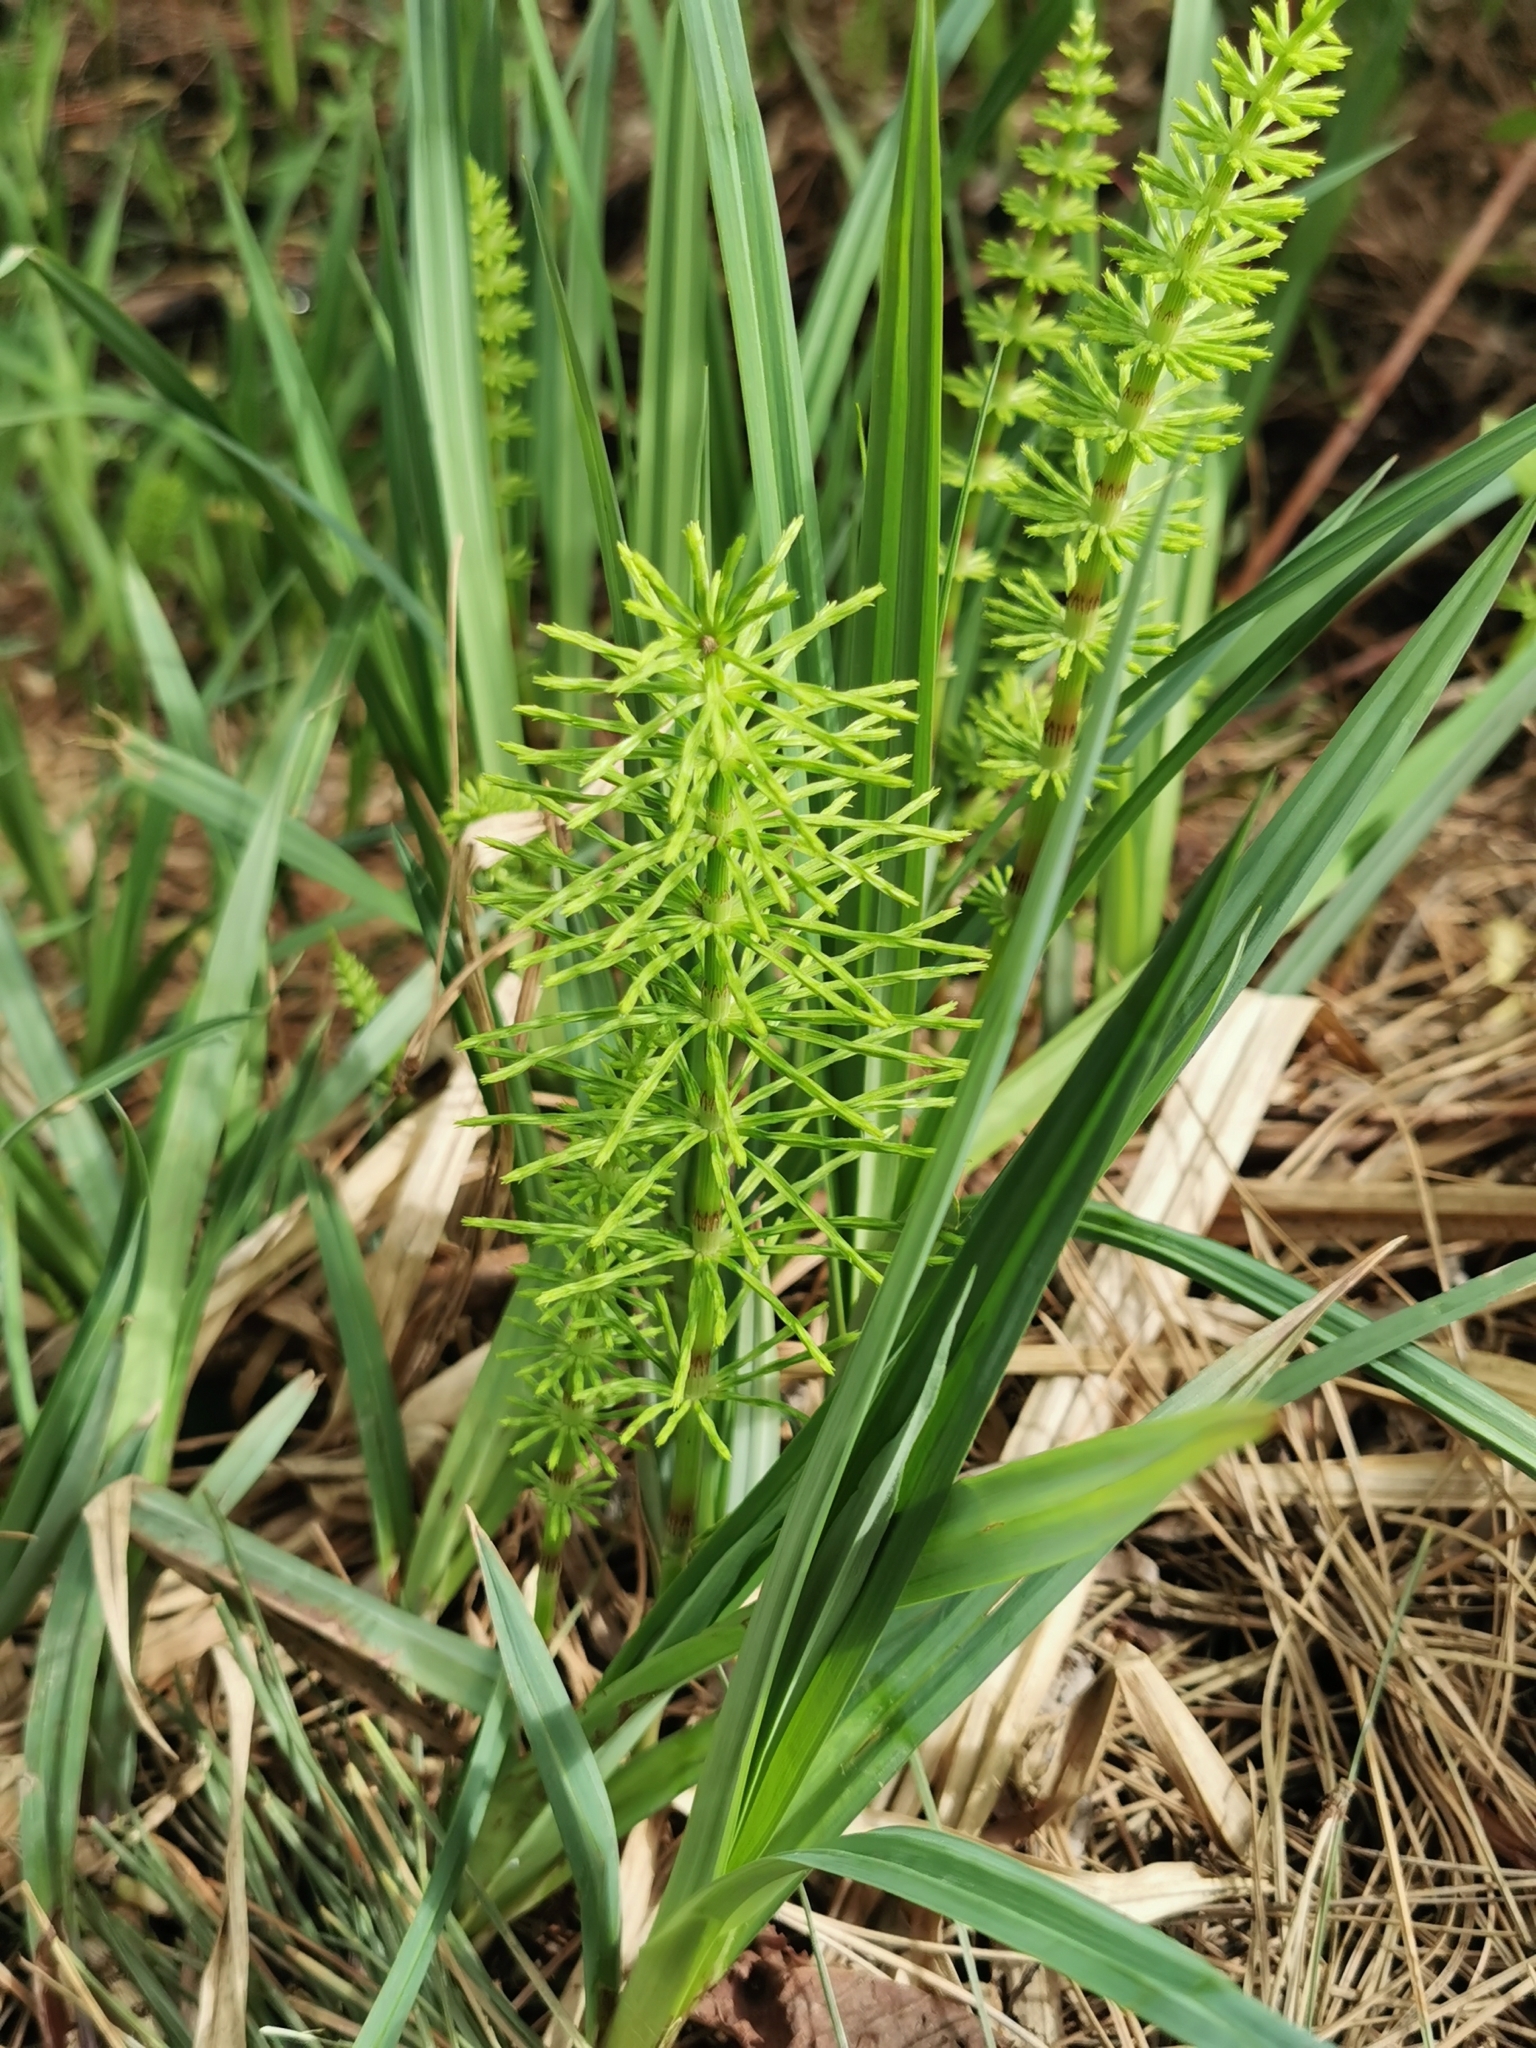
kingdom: Plantae
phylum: Tracheophyta
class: Polypodiopsida
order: Equisetales
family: Equisetaceae
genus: Equisetum
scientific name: Equisetum arvense
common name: Field horsetail
